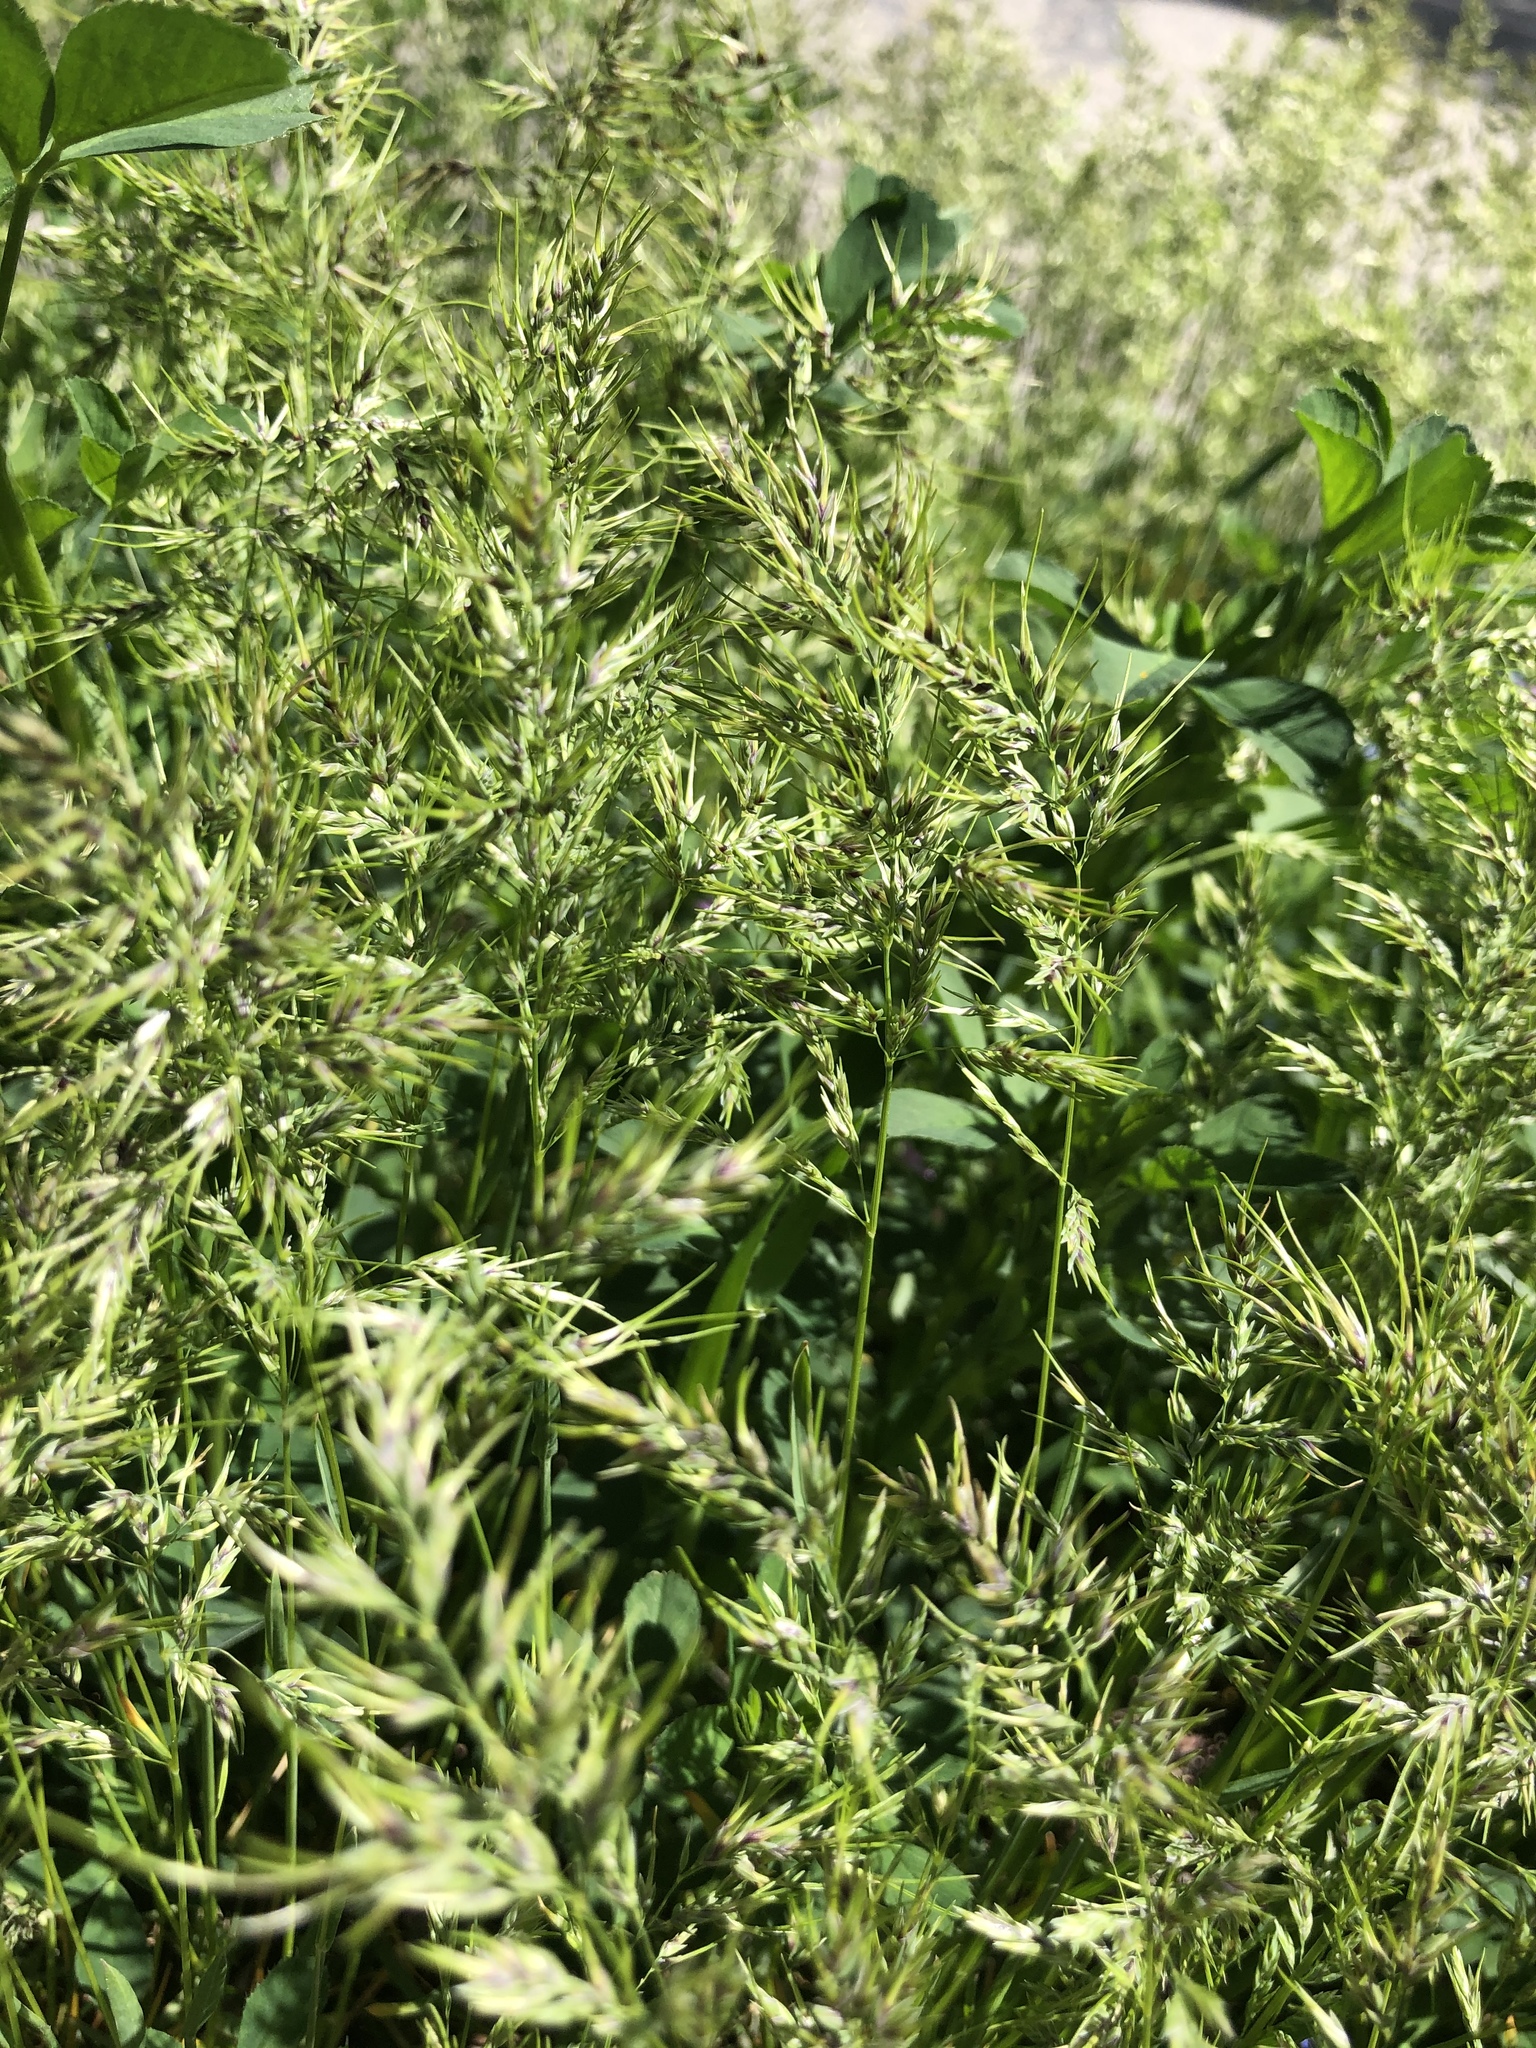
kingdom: Plantae
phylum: Tracheophyta
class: Liliopsida
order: Poales
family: Poaceae
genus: Poa
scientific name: Poa bulbosa
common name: Bulbous bluegrass
